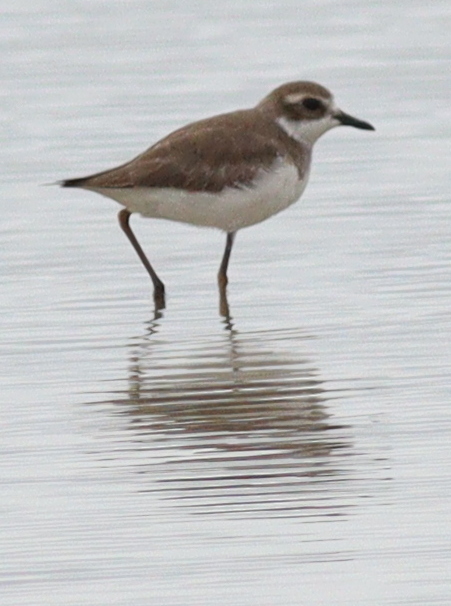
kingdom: Animalia
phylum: Chordata
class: Aves
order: Charadriiformes
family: Charadriidae
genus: Anarhynchus
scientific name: Anarhynchus
